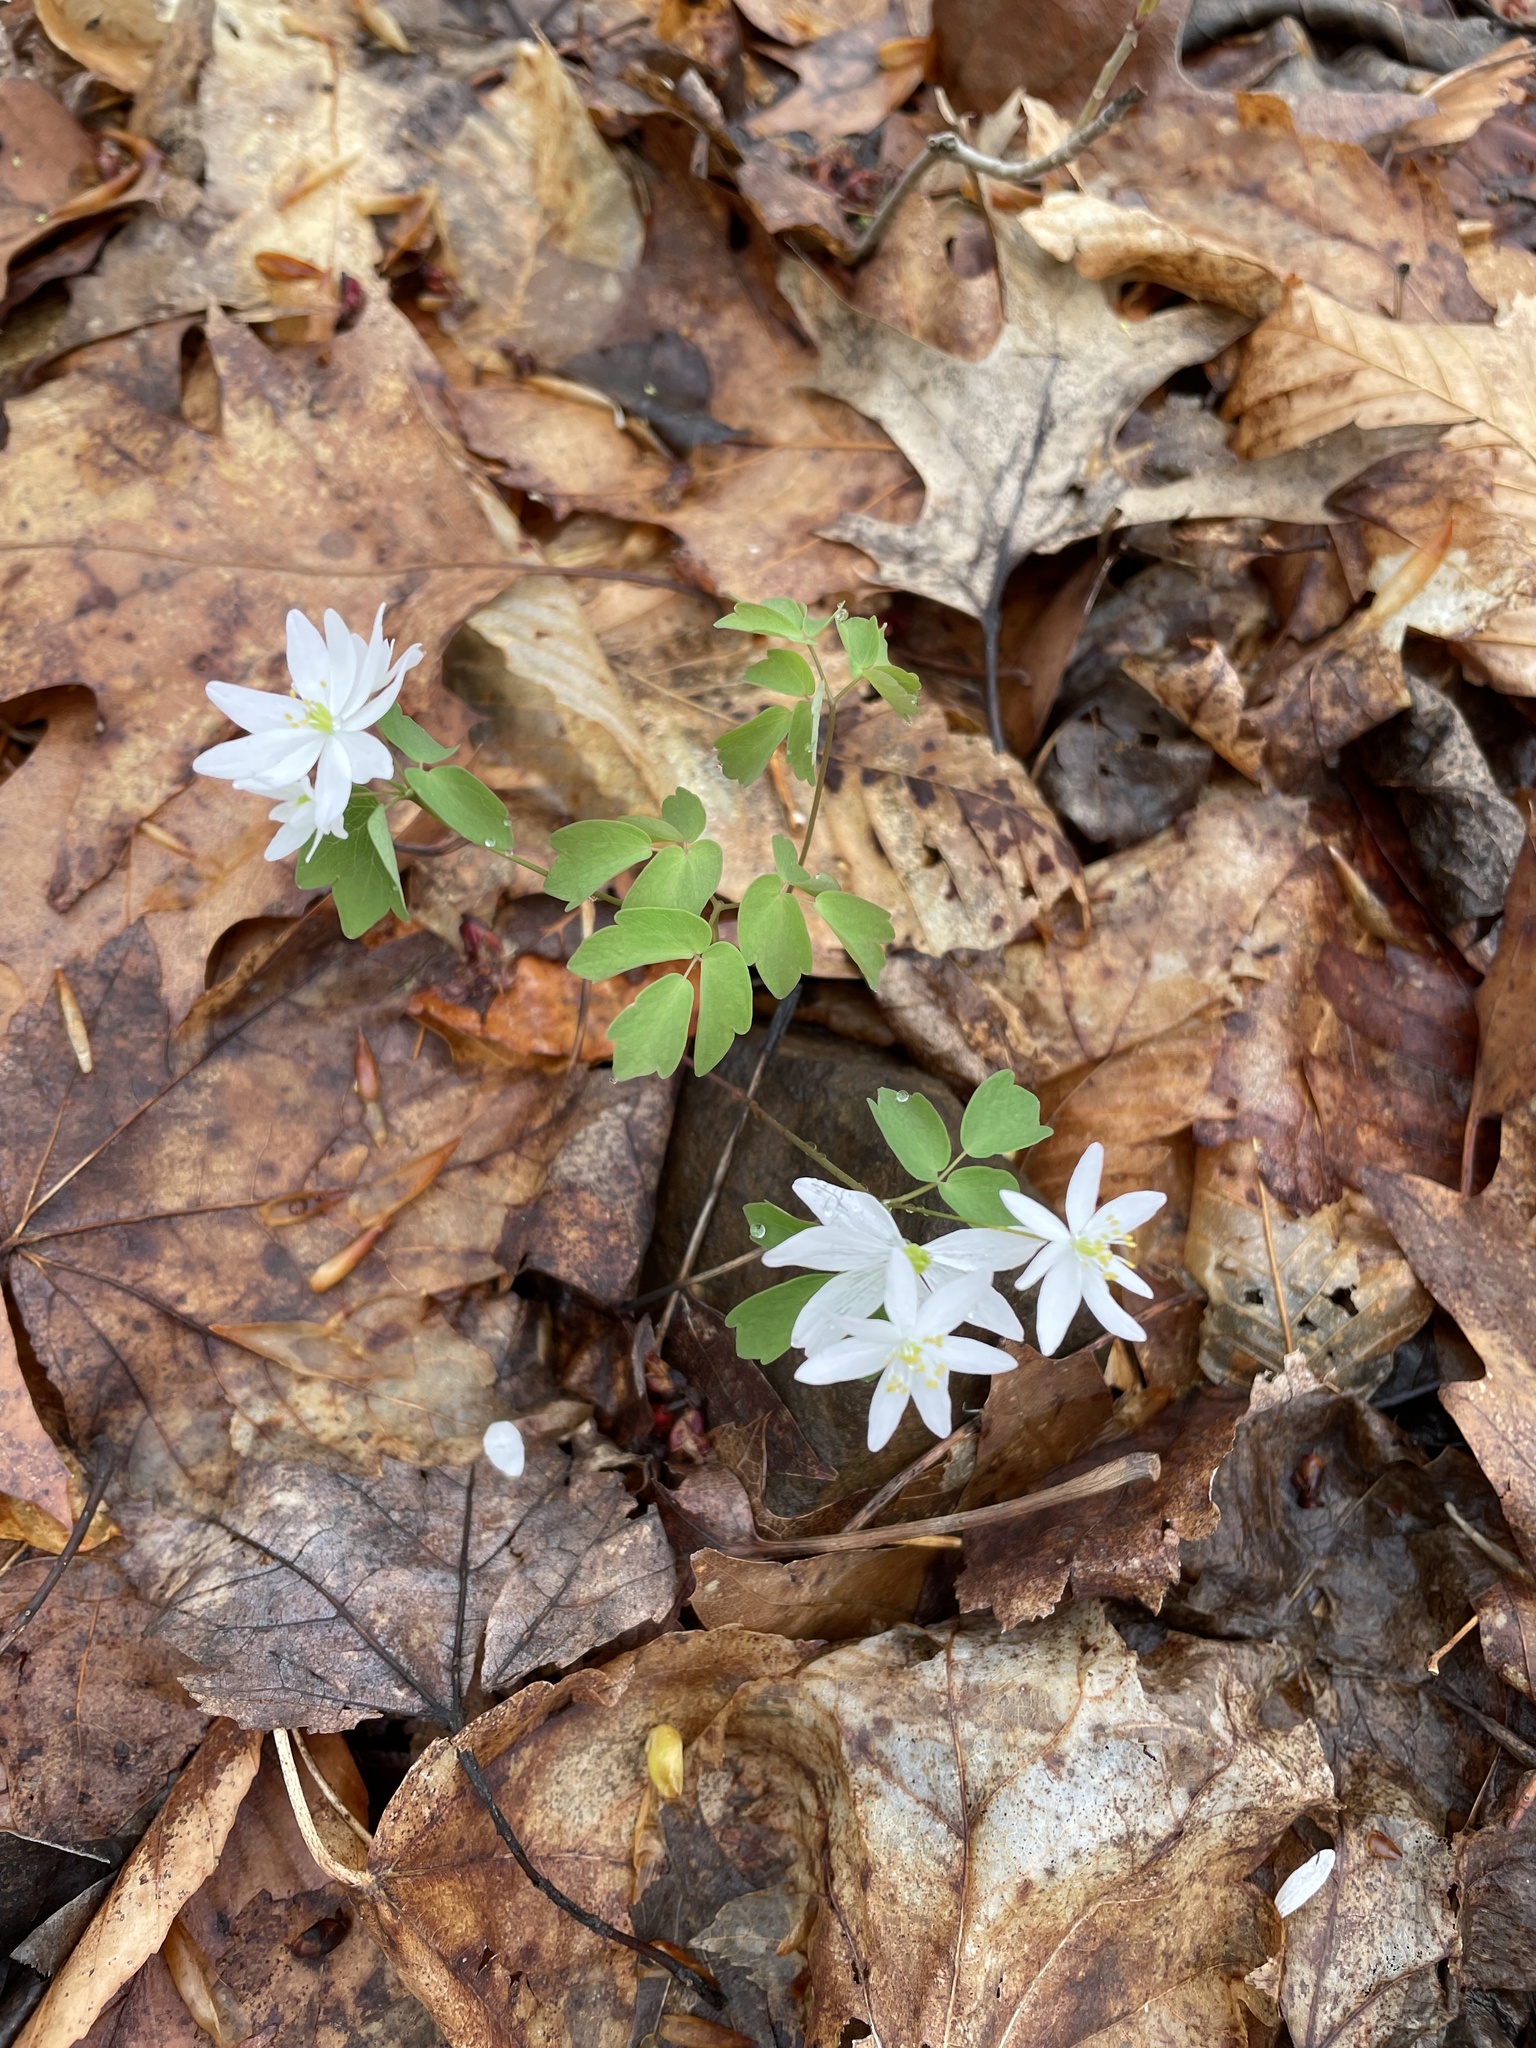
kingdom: Plantae
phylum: Tracheophyta
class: Magnoliopsida
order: Ranunculales
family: Ranunculaceae
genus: Thalictrum
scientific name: Thalictrum thalictroides
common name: Rue-anemone
